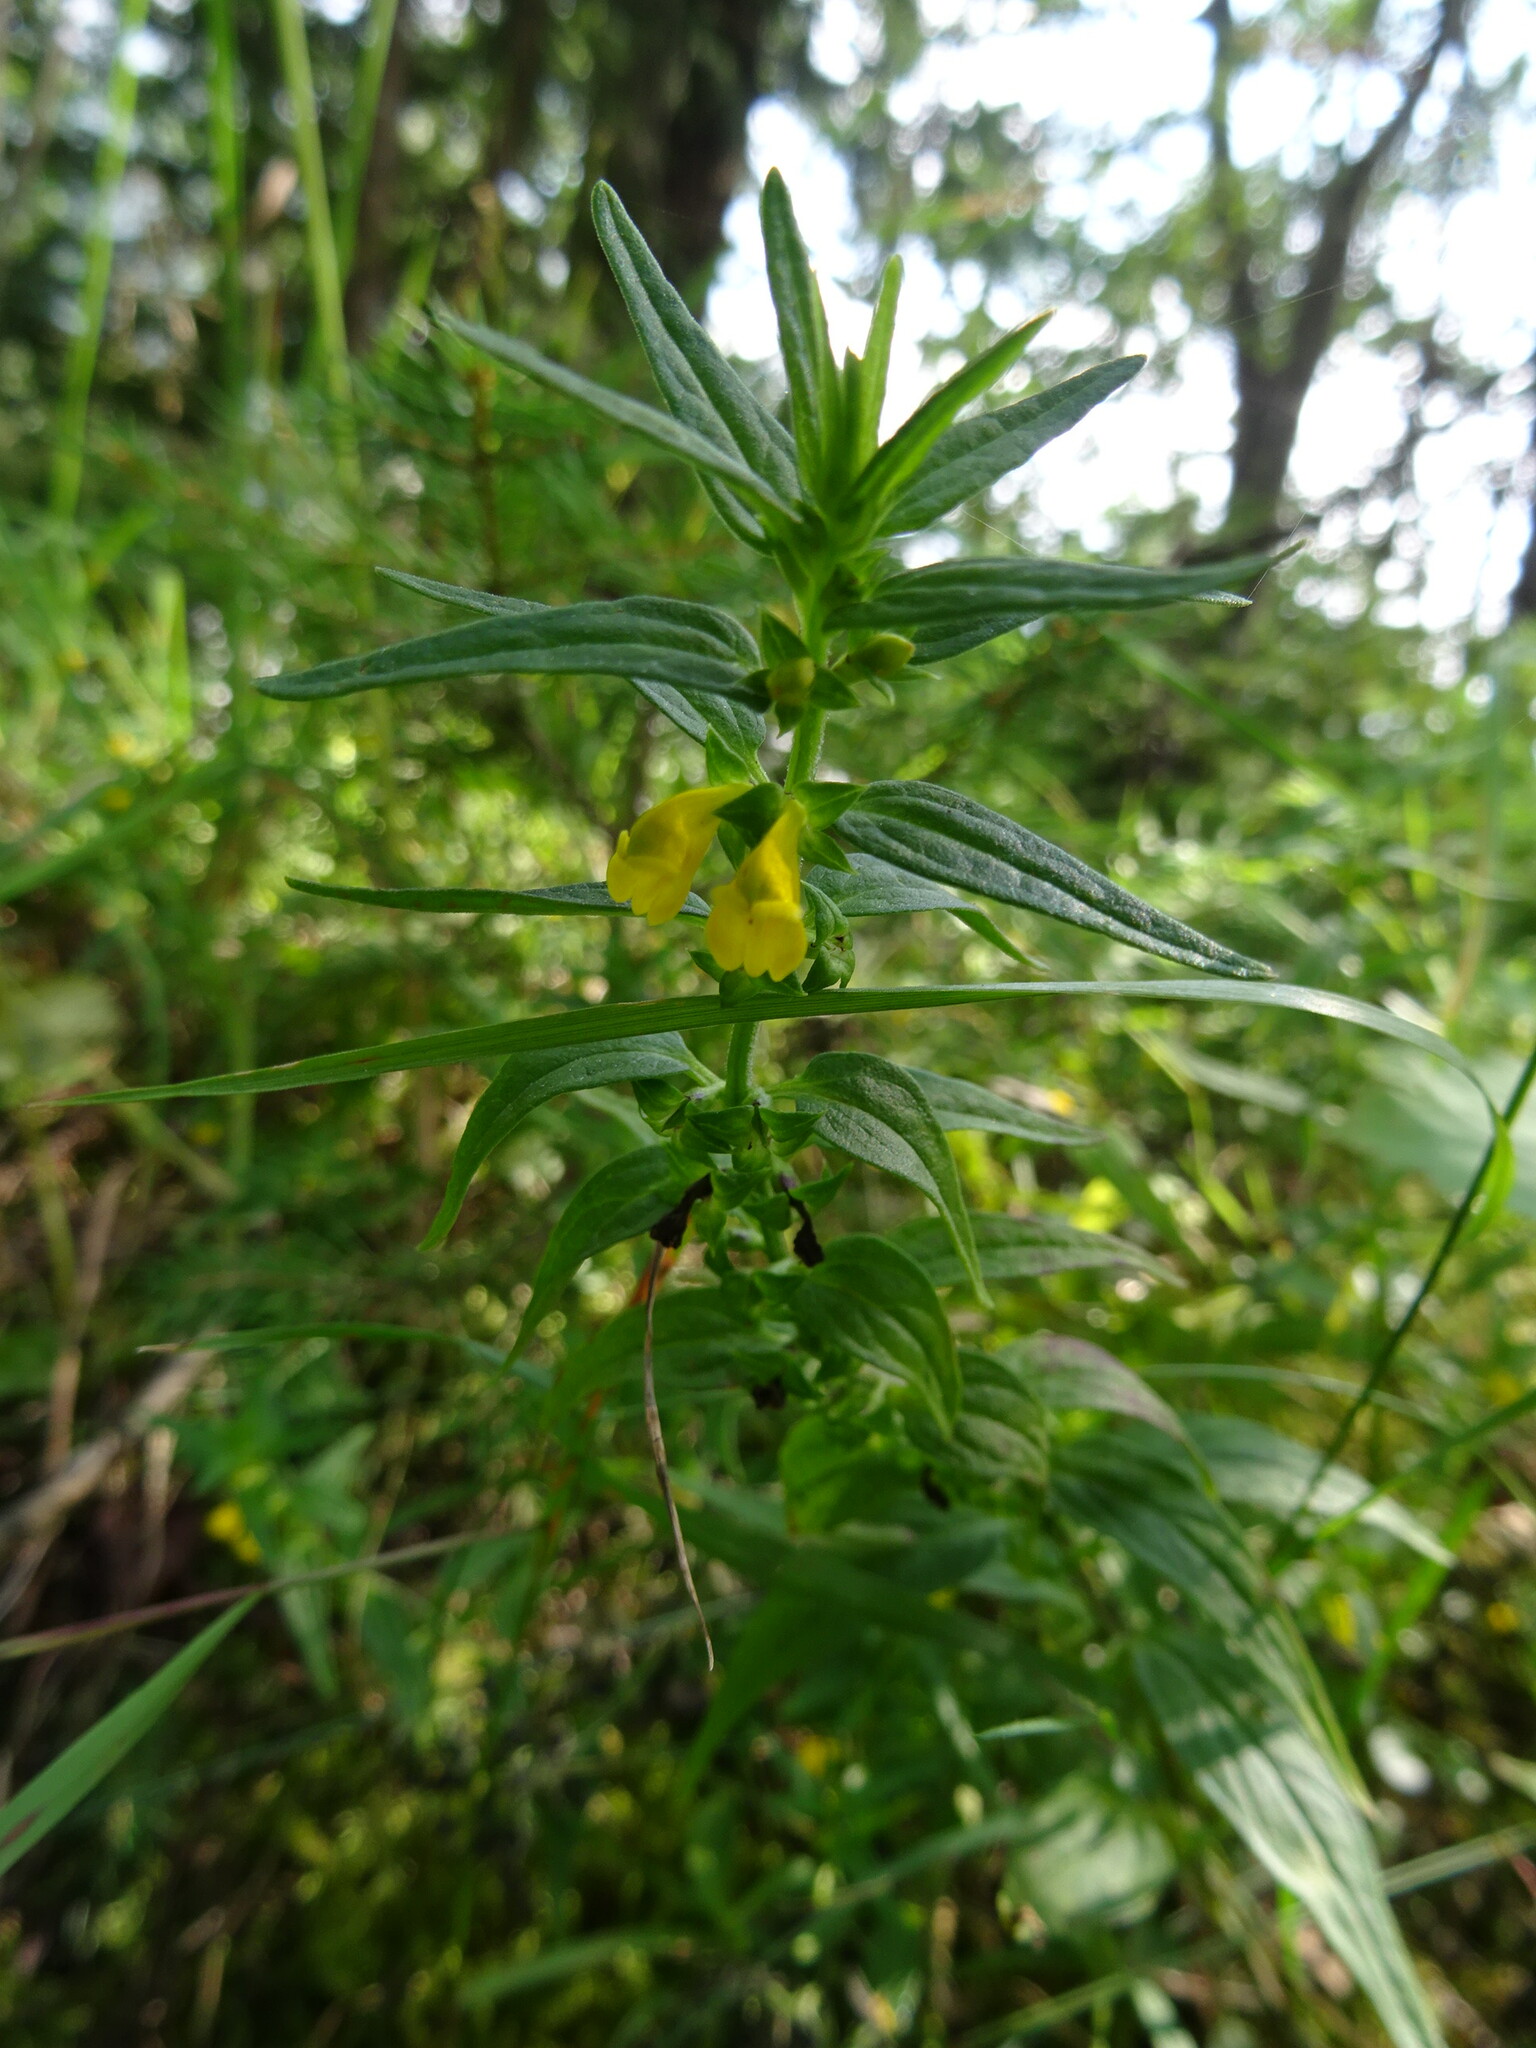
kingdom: Plantae
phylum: Tracheophyta
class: Magnoliopsida
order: Lamiales
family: Orobanchaceae
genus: Melampyrum
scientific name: Melampyrum sylvaticum
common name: Small cow-wheat
